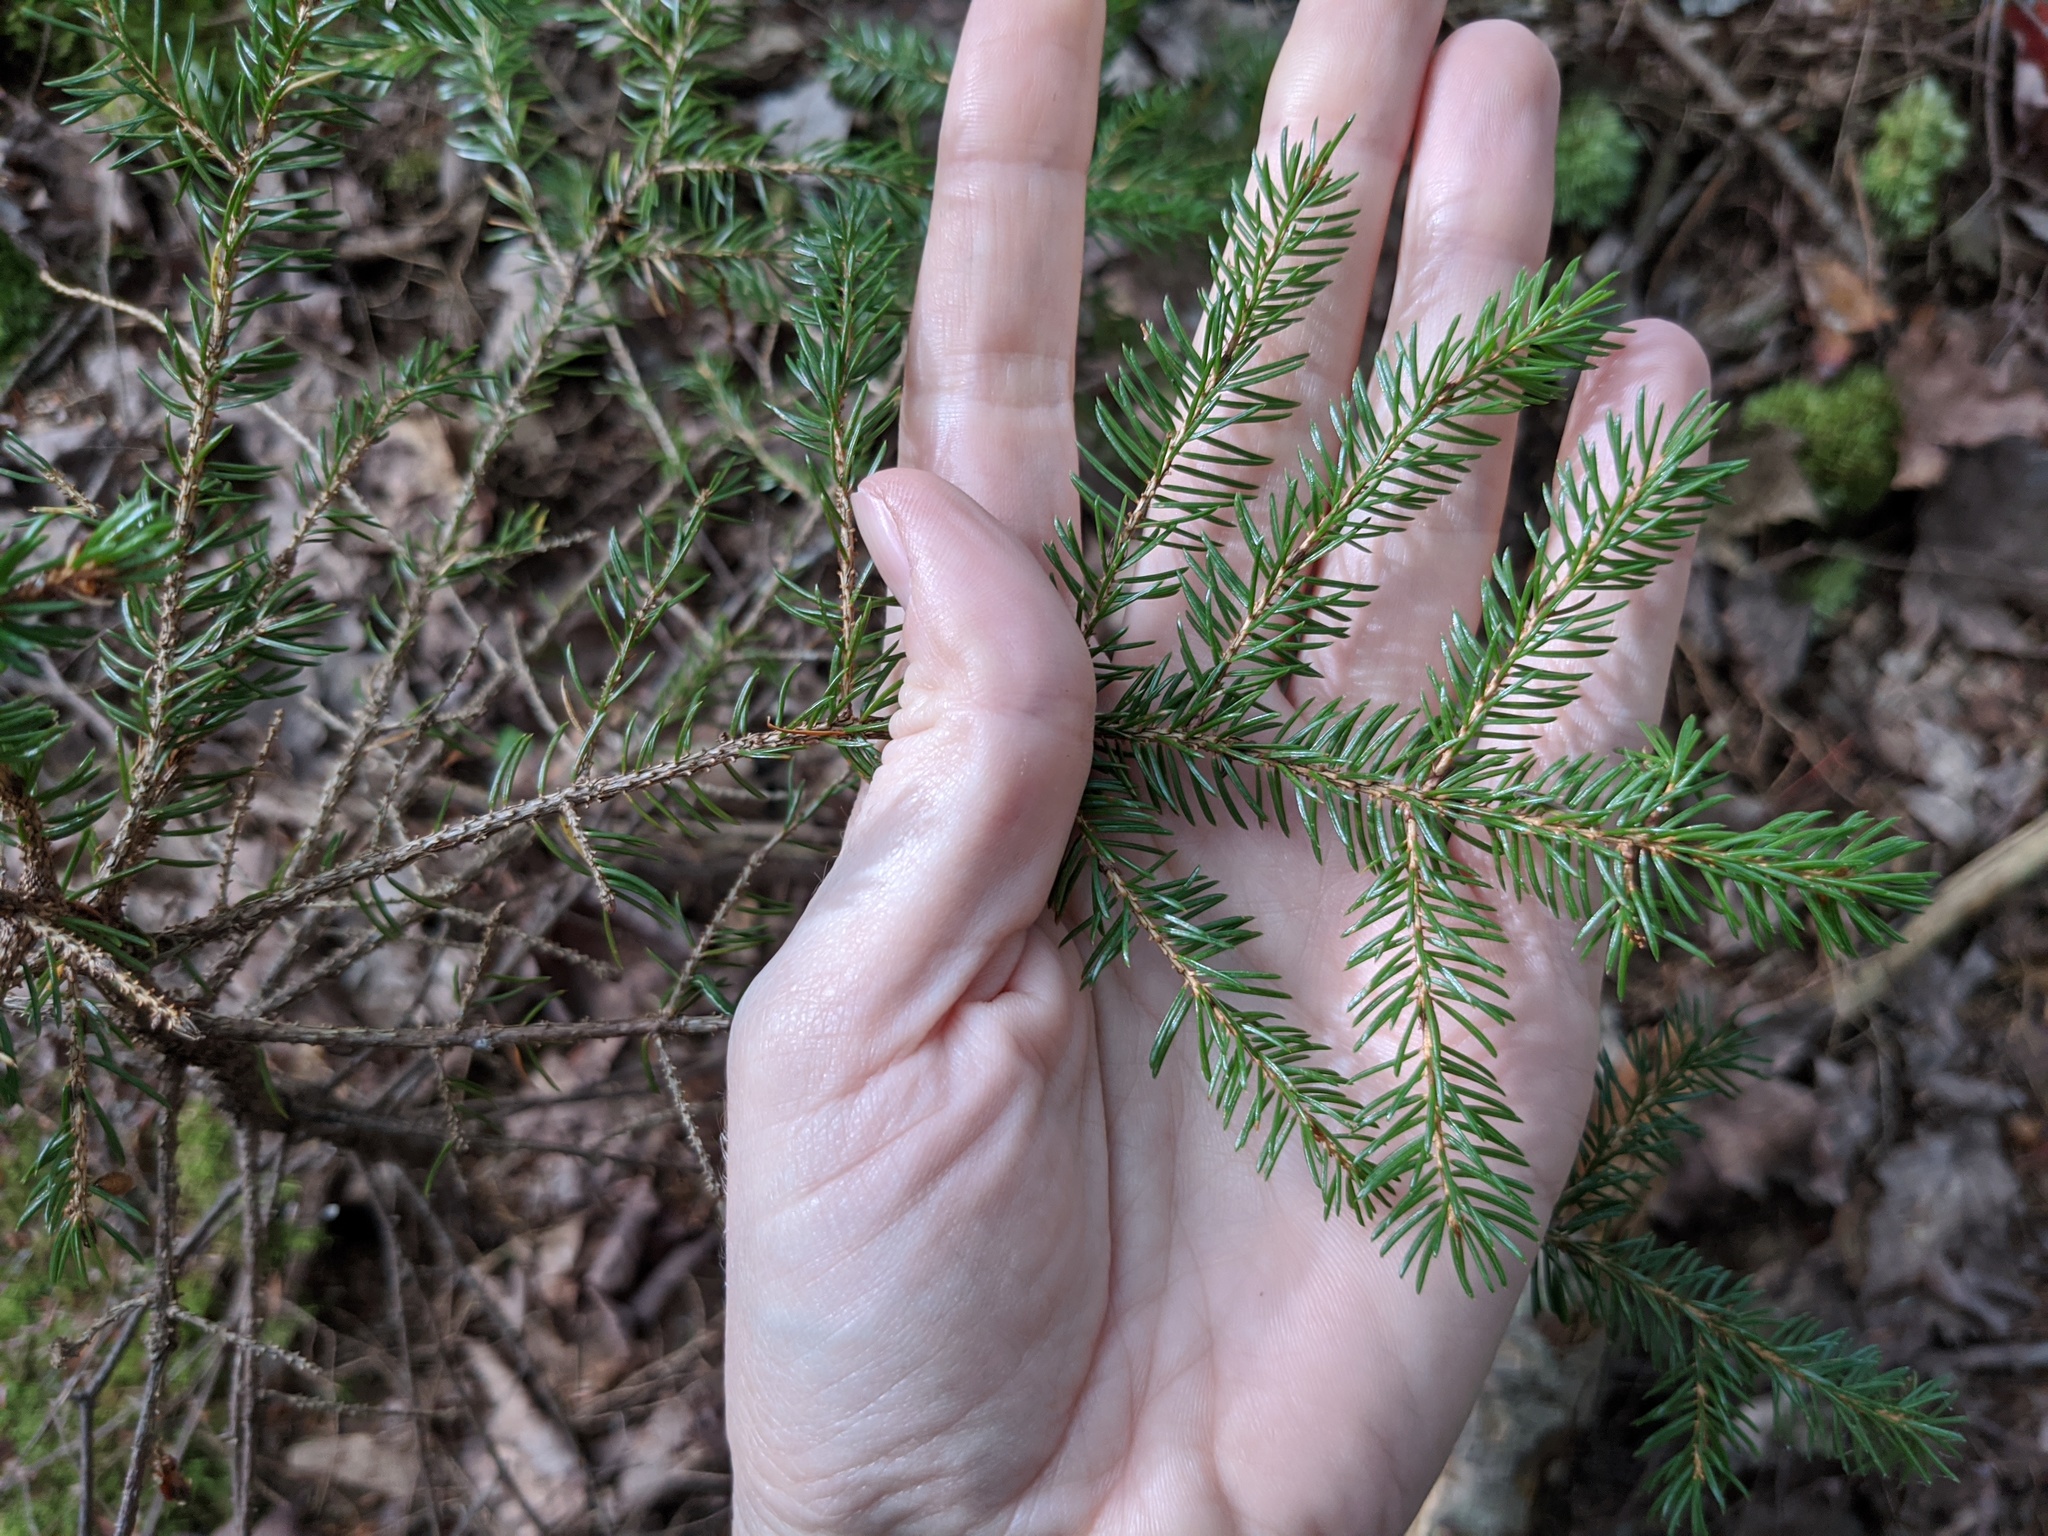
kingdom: Plantae
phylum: Tracheophyta
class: Pinopsida
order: Pinales
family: Pinaceae
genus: Picea
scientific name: Picea rubens
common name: Red spruce
